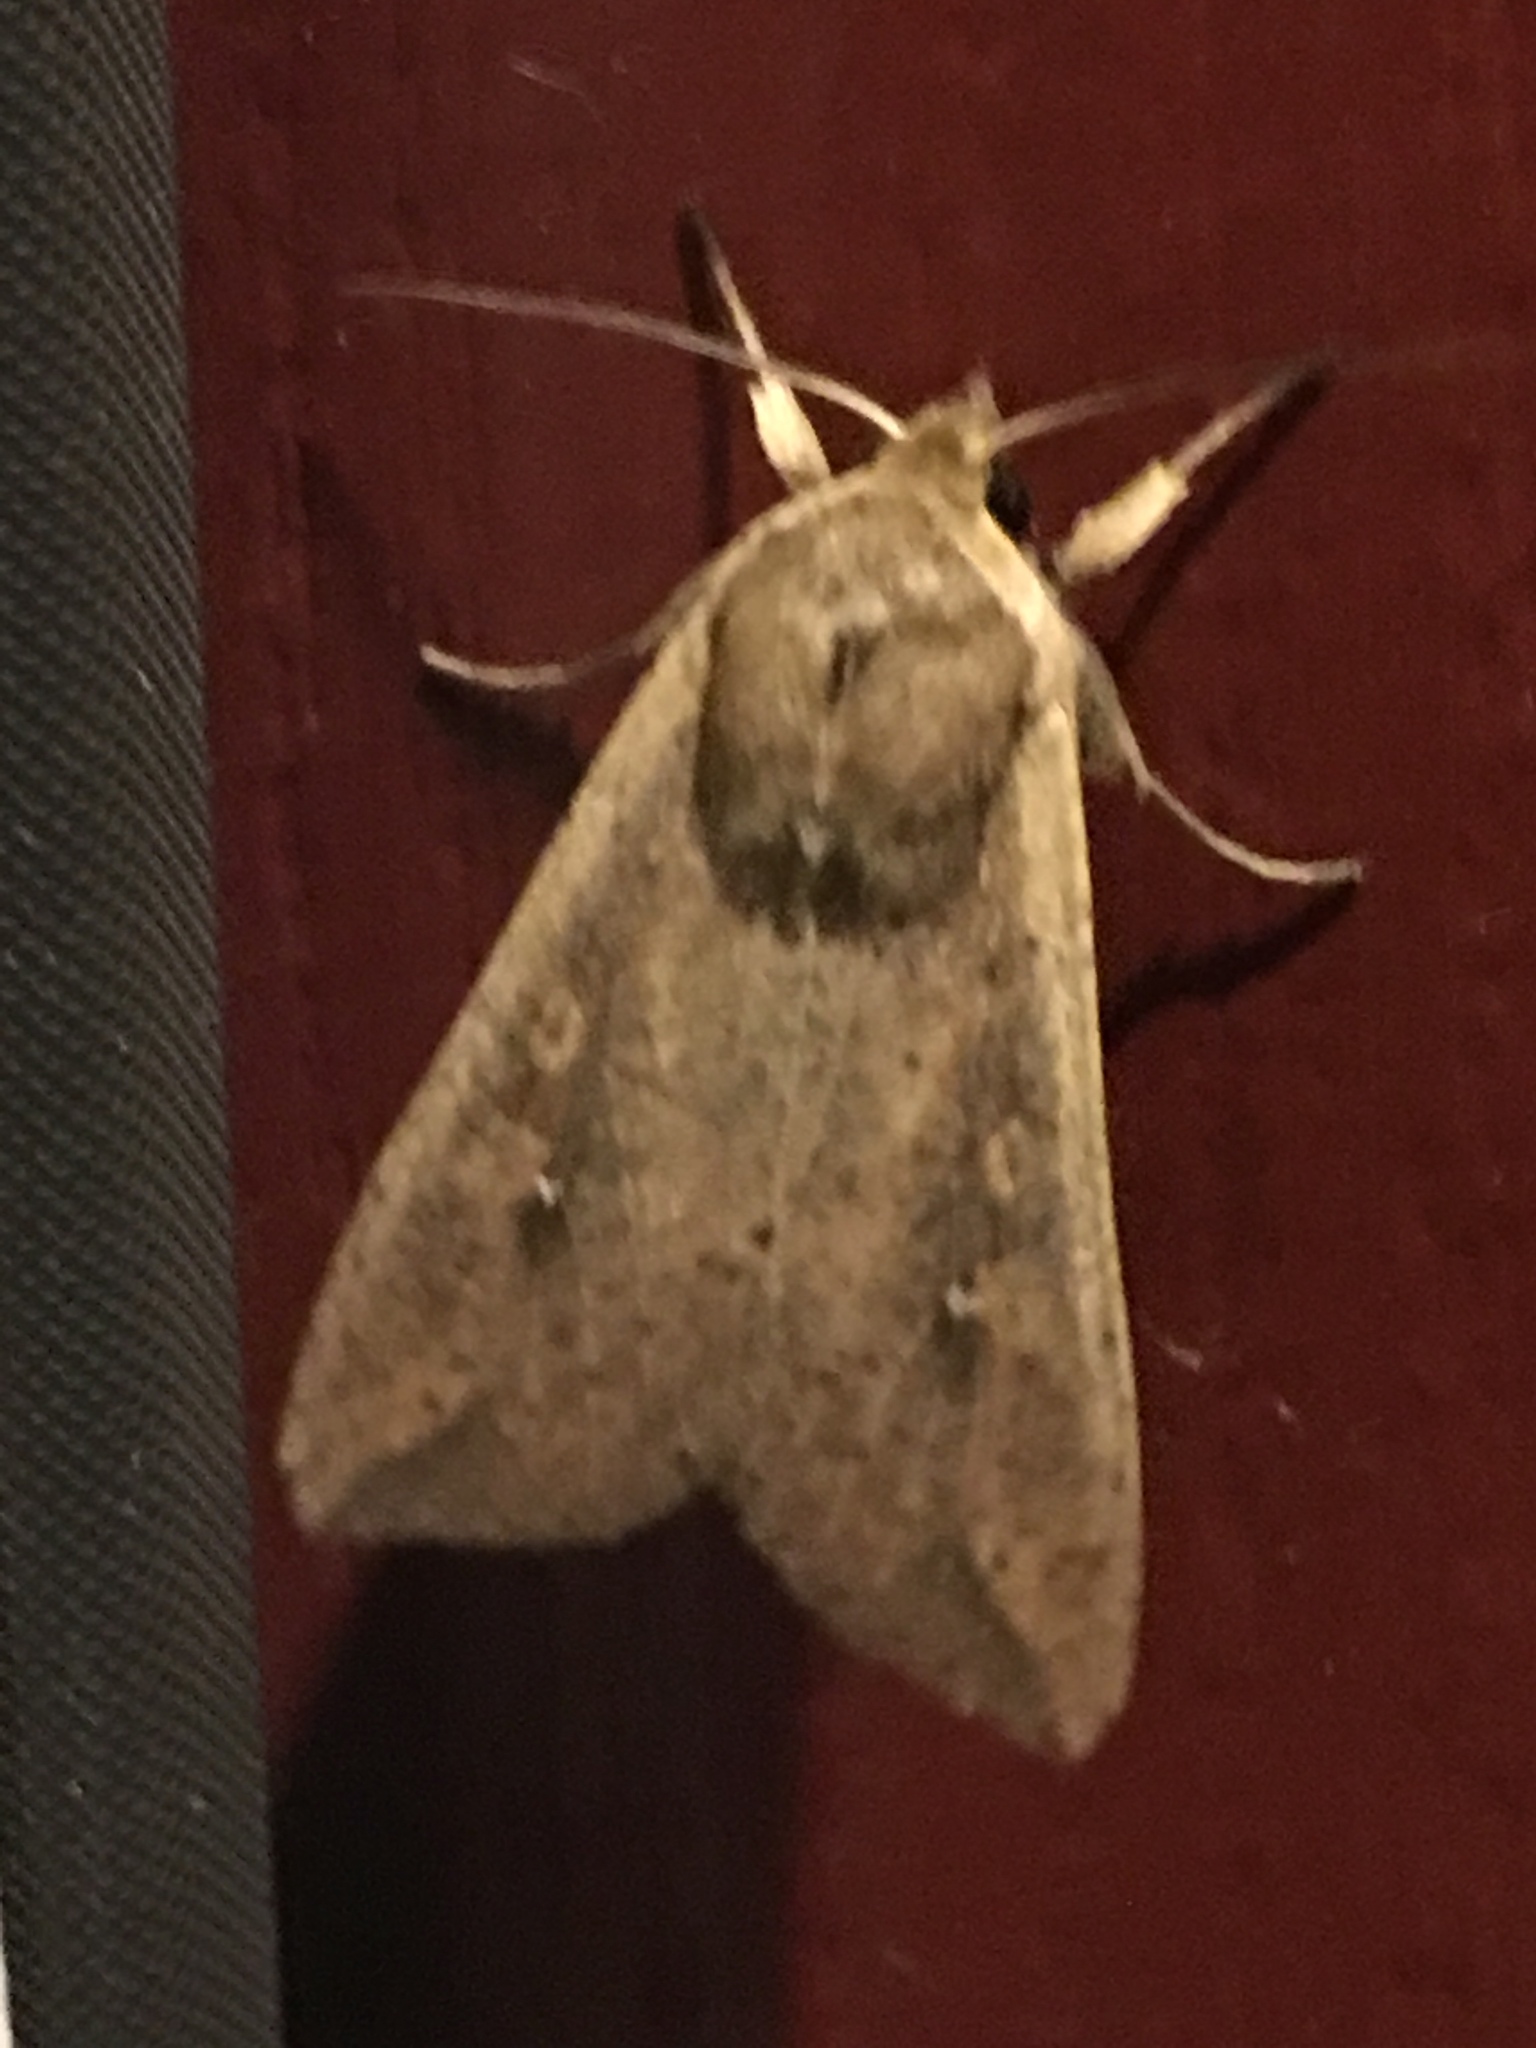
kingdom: Animalia
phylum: Arthropoda
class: Insecta
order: Lepidoptera
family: Noctuidae
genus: Mythimna
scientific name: Mythimna unipuncta
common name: White-speck
